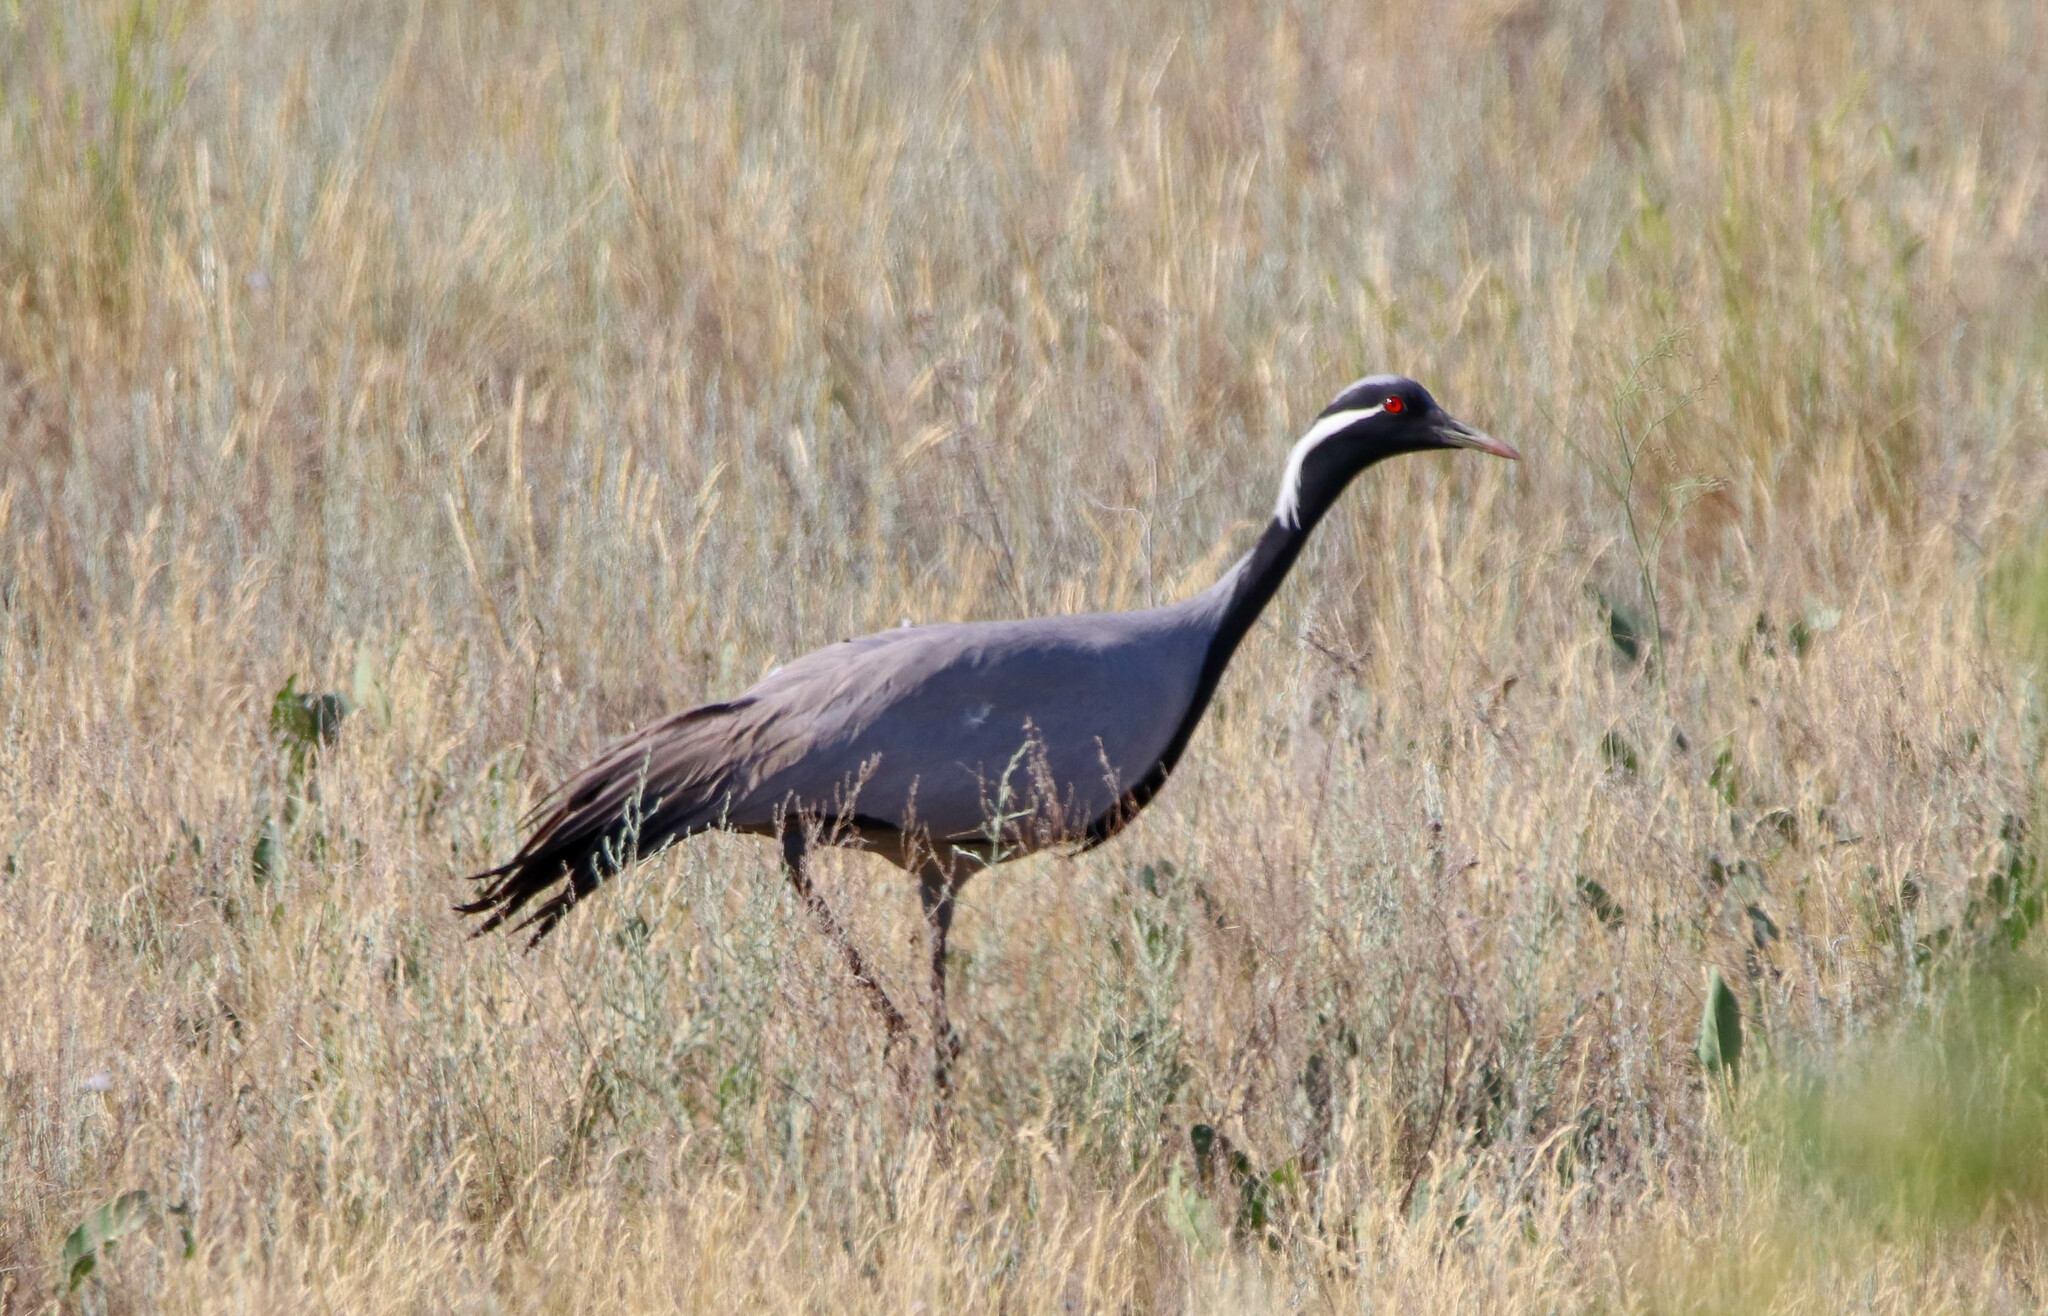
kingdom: Animalia
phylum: Chordata
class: Aves
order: Gruiformes
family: Gruidae
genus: Anthropoides
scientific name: Anthropoides virgo
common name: Demoiselle crane
